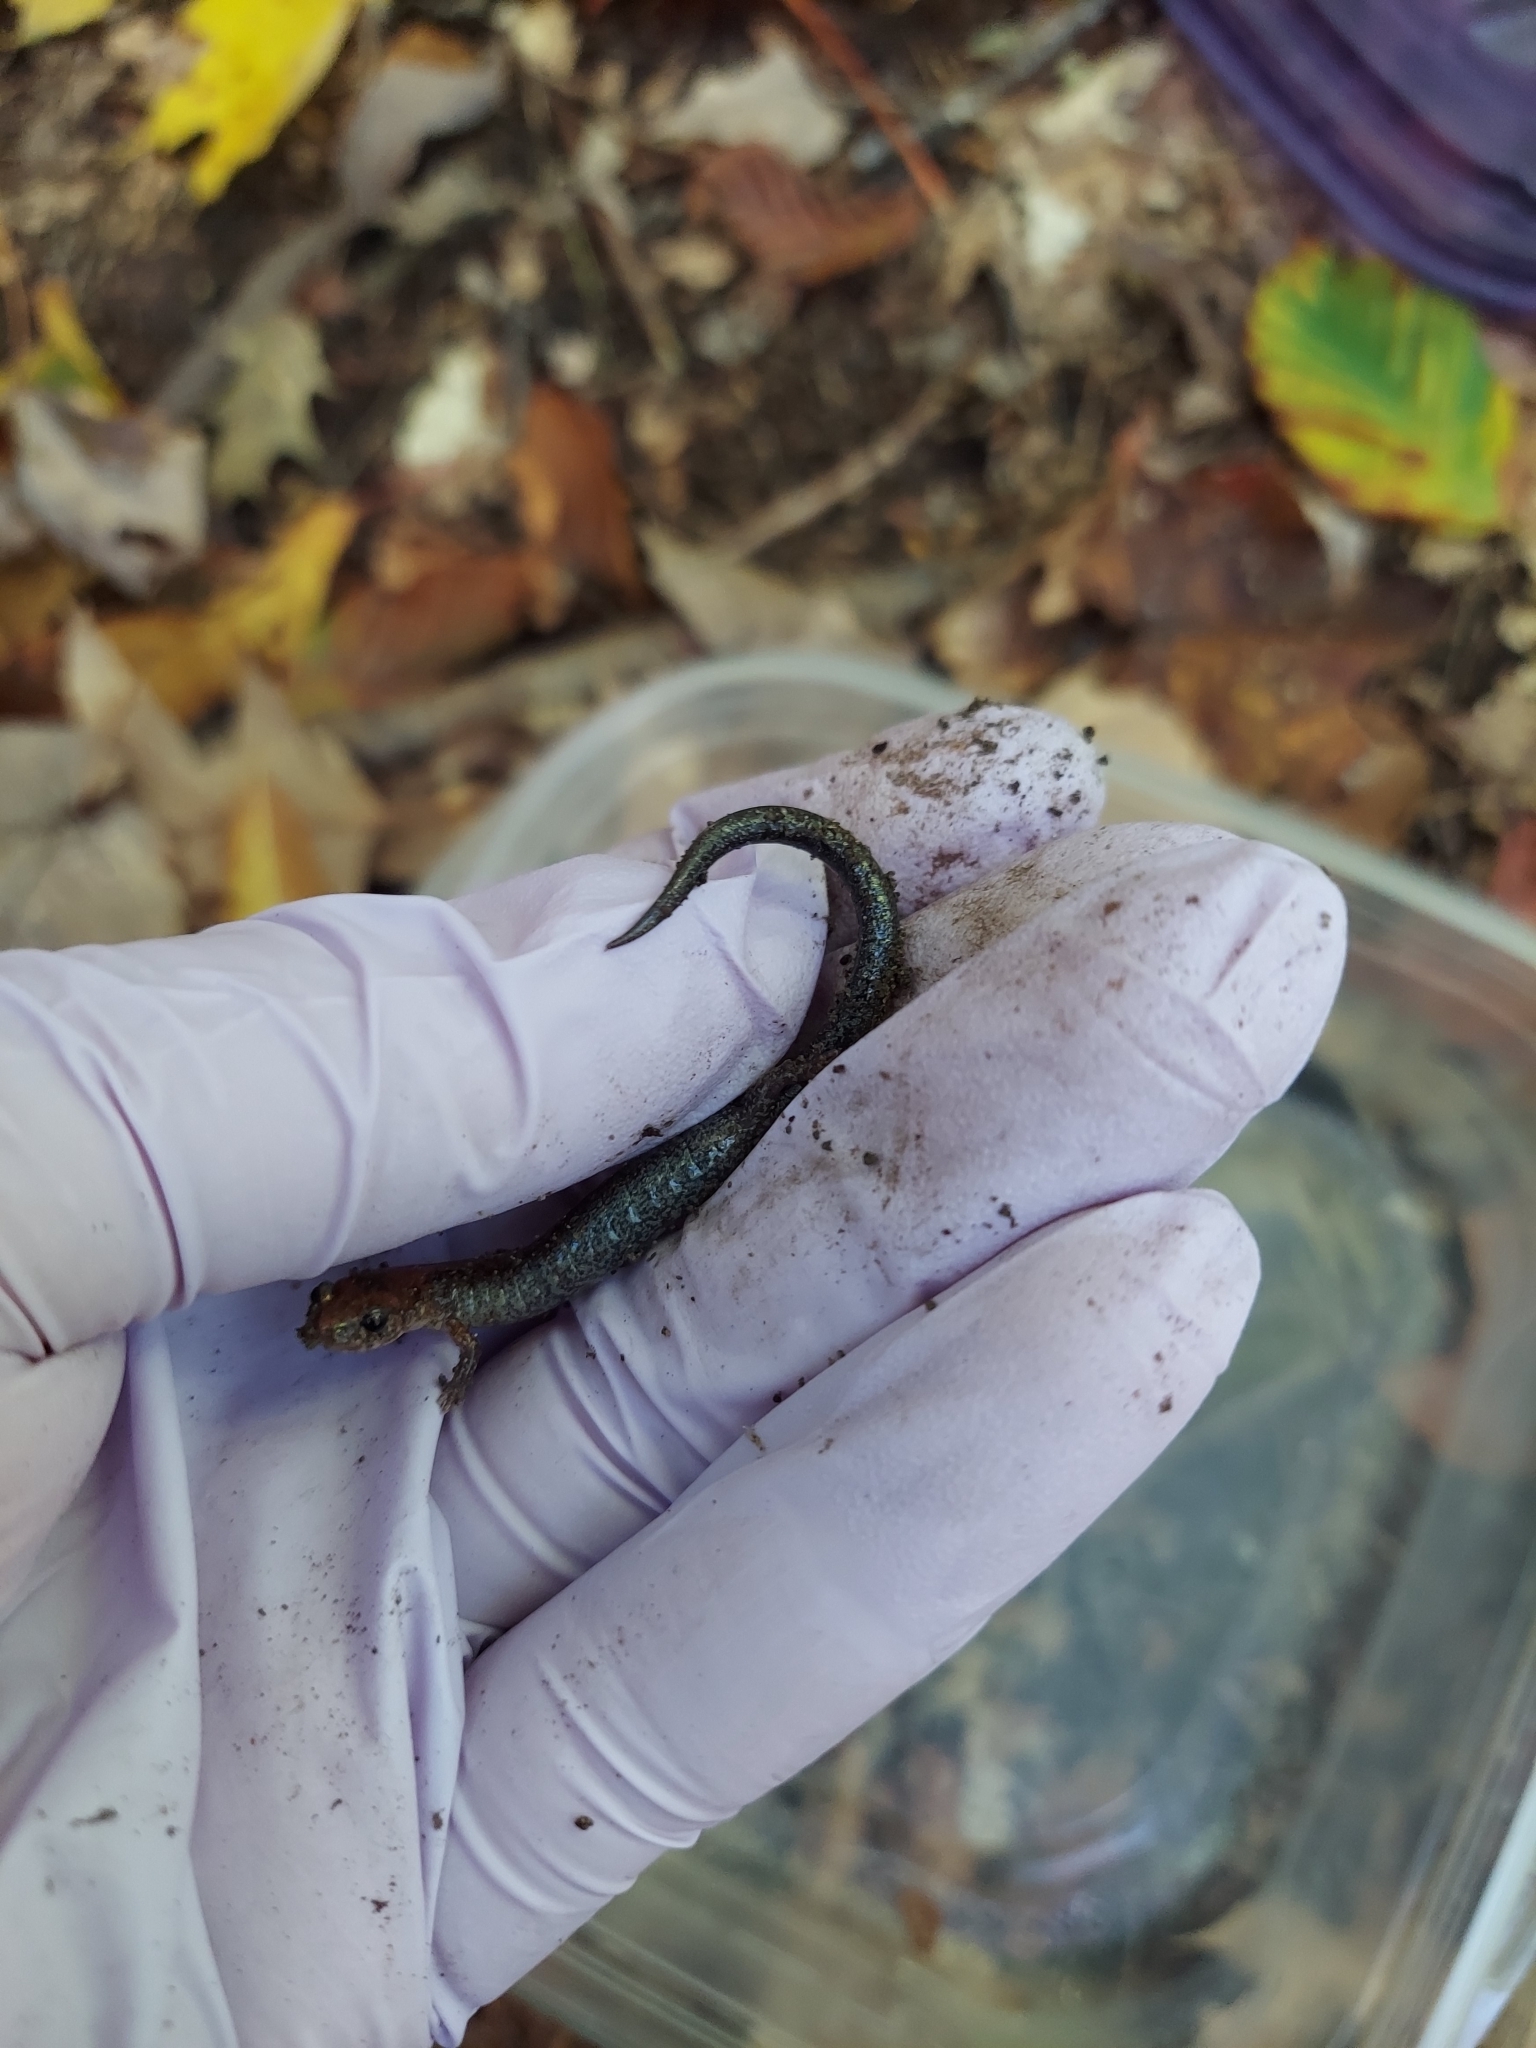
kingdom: Animalia
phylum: Chordata
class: Amphibia
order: Caudata
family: Plethodontidae
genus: Plethodon
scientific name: Plethodon cinereus
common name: Redback salamander
